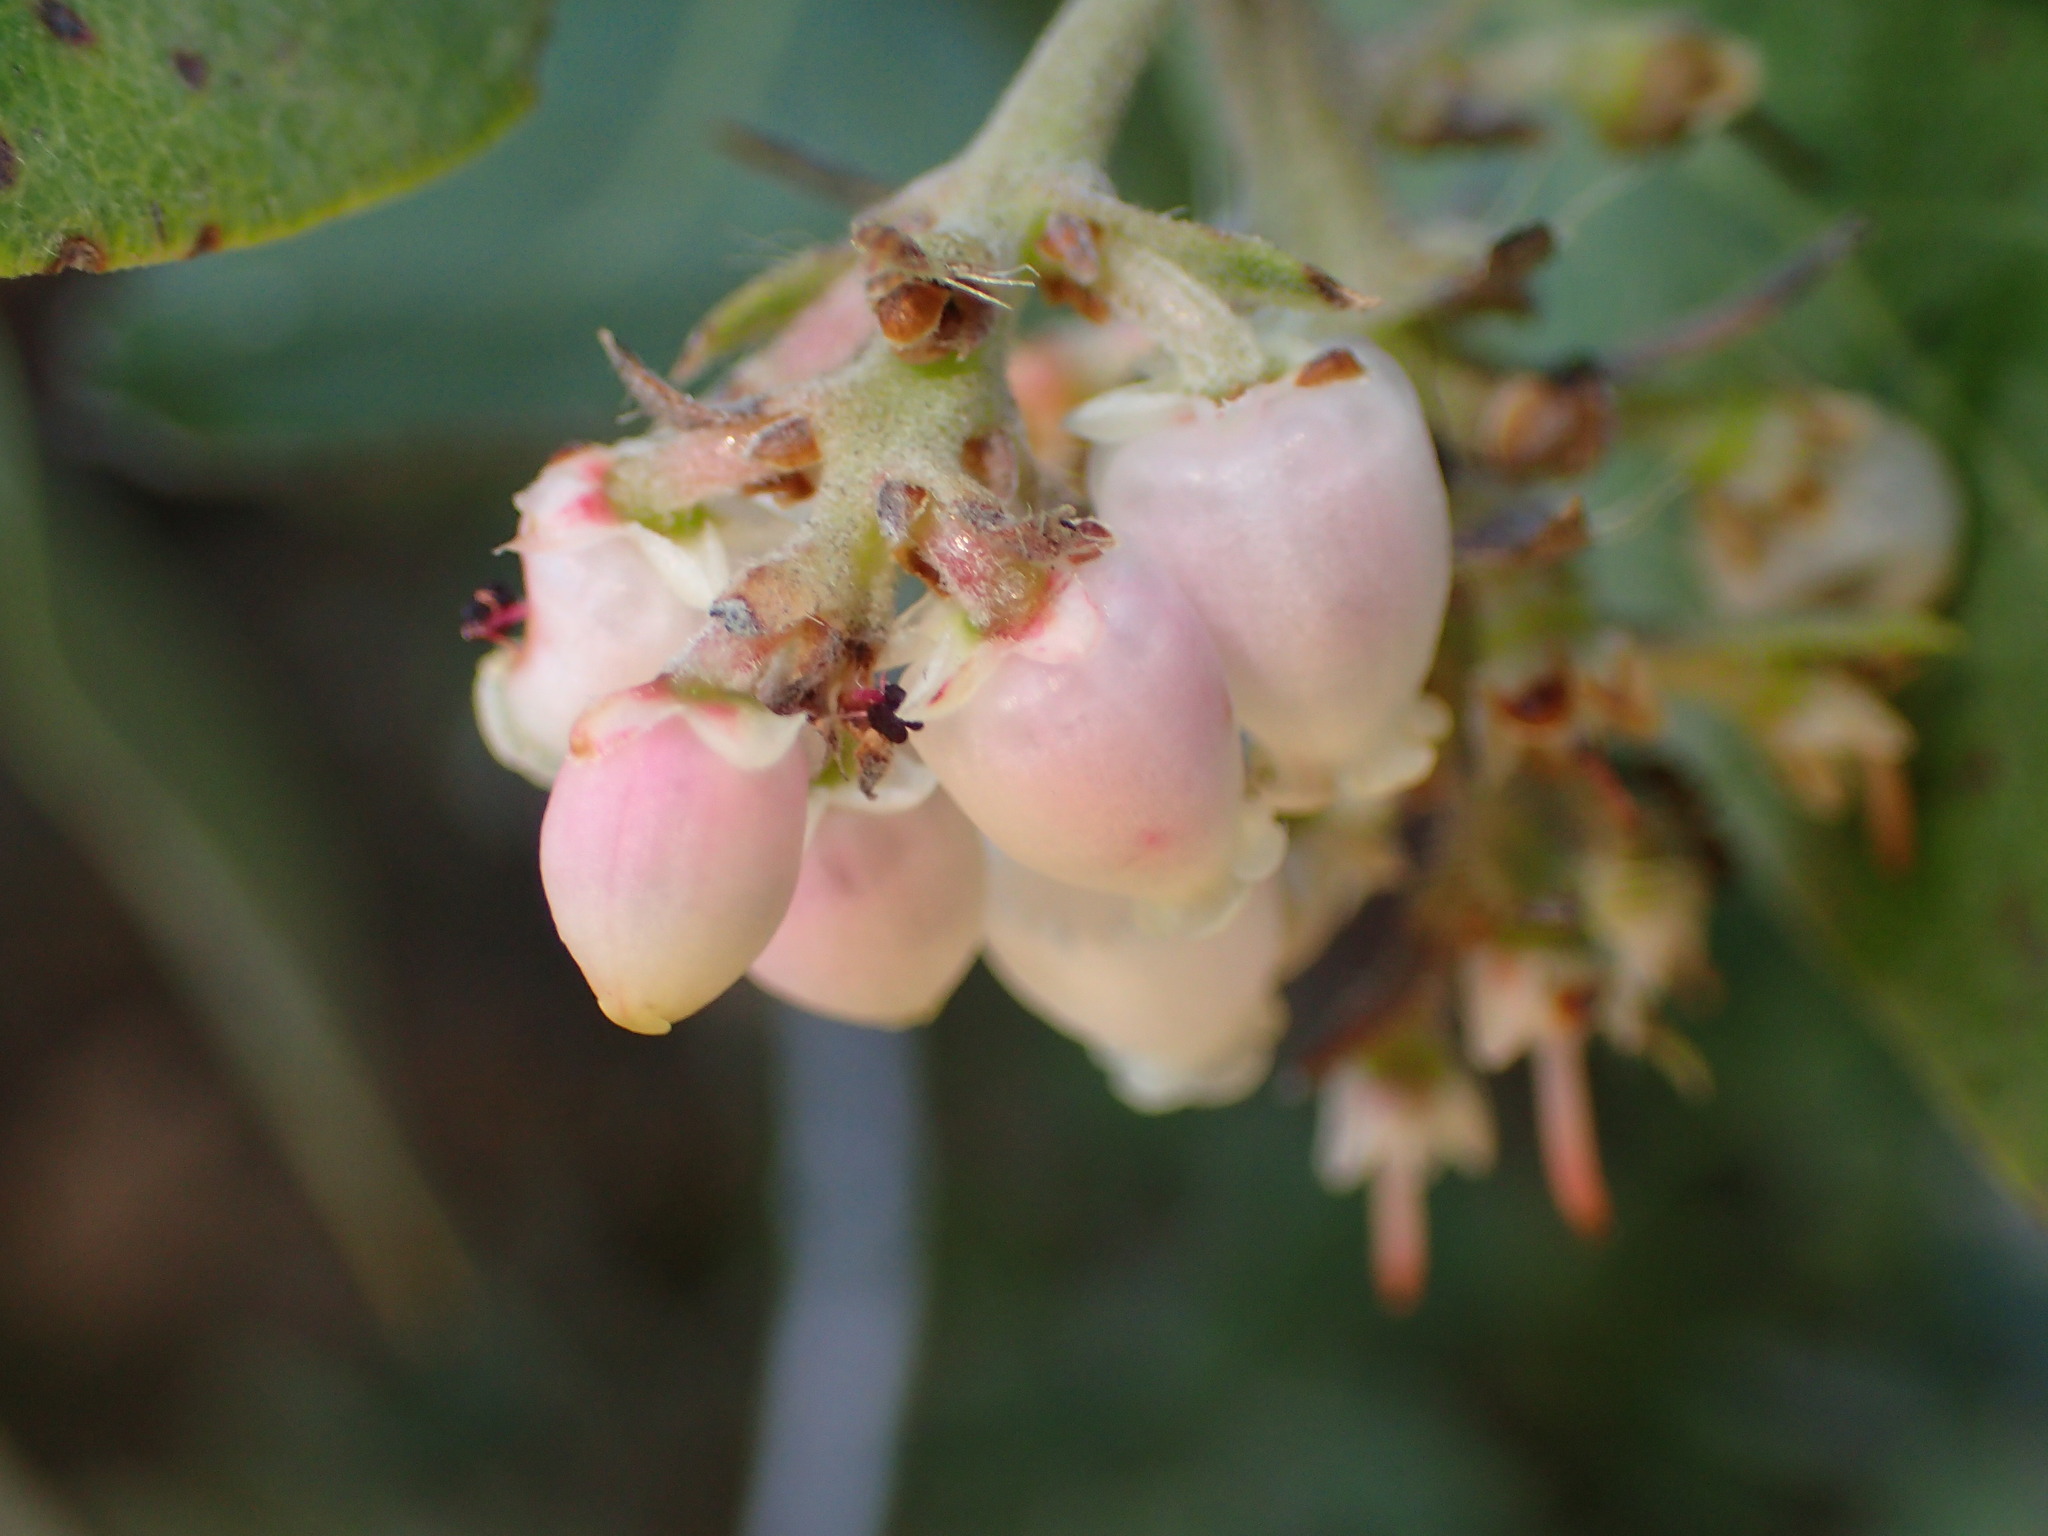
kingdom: Plantae
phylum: Tracheophyta
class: Magnoliopsida
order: Ericales
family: Ericaceae
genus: Arctostaphylos
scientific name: Arctostaphylos crustacea
